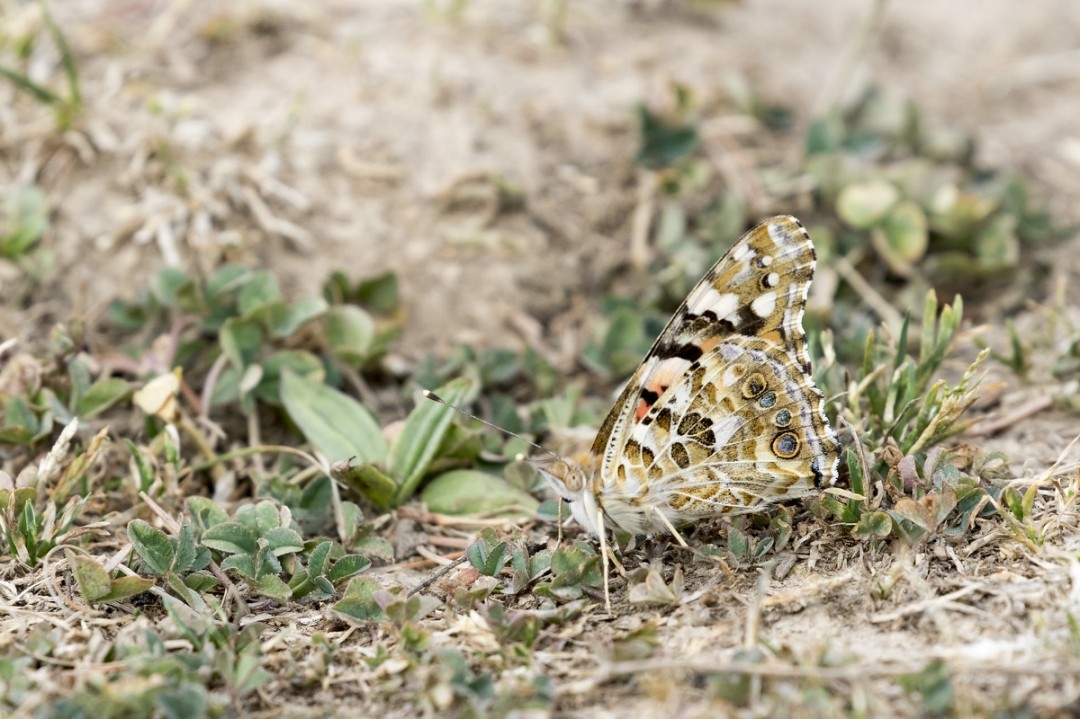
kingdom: Animalia
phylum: Arthropoda
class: Insecta
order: Lepidoptera
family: Nymphalidae
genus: Vanessa
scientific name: Vanessa cardui
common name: Painted lady
